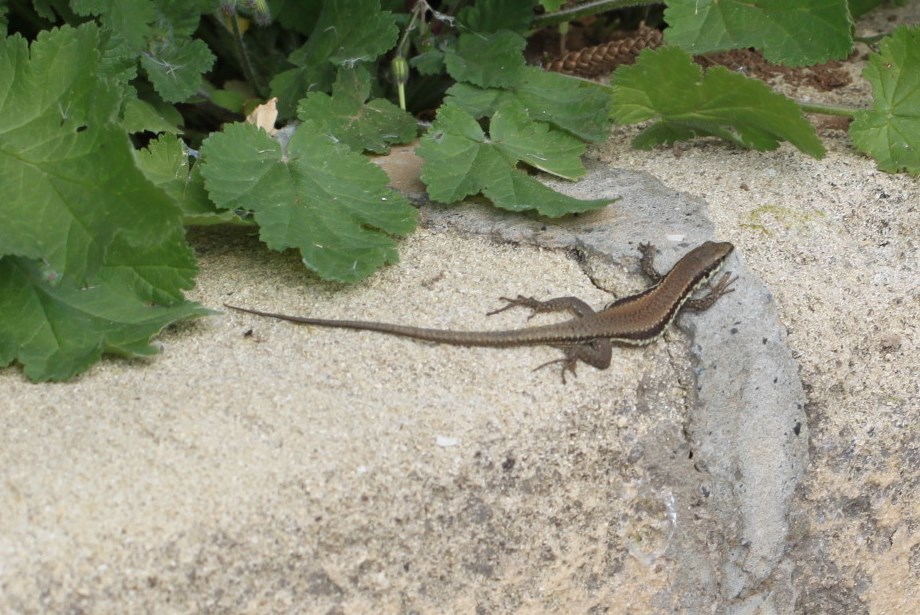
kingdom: Animalia
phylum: Chordata
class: Squamata
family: Lacertidae
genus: Phoenicolacerta
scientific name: Phoenicolacerta troodica
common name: Troodos wall lizard
